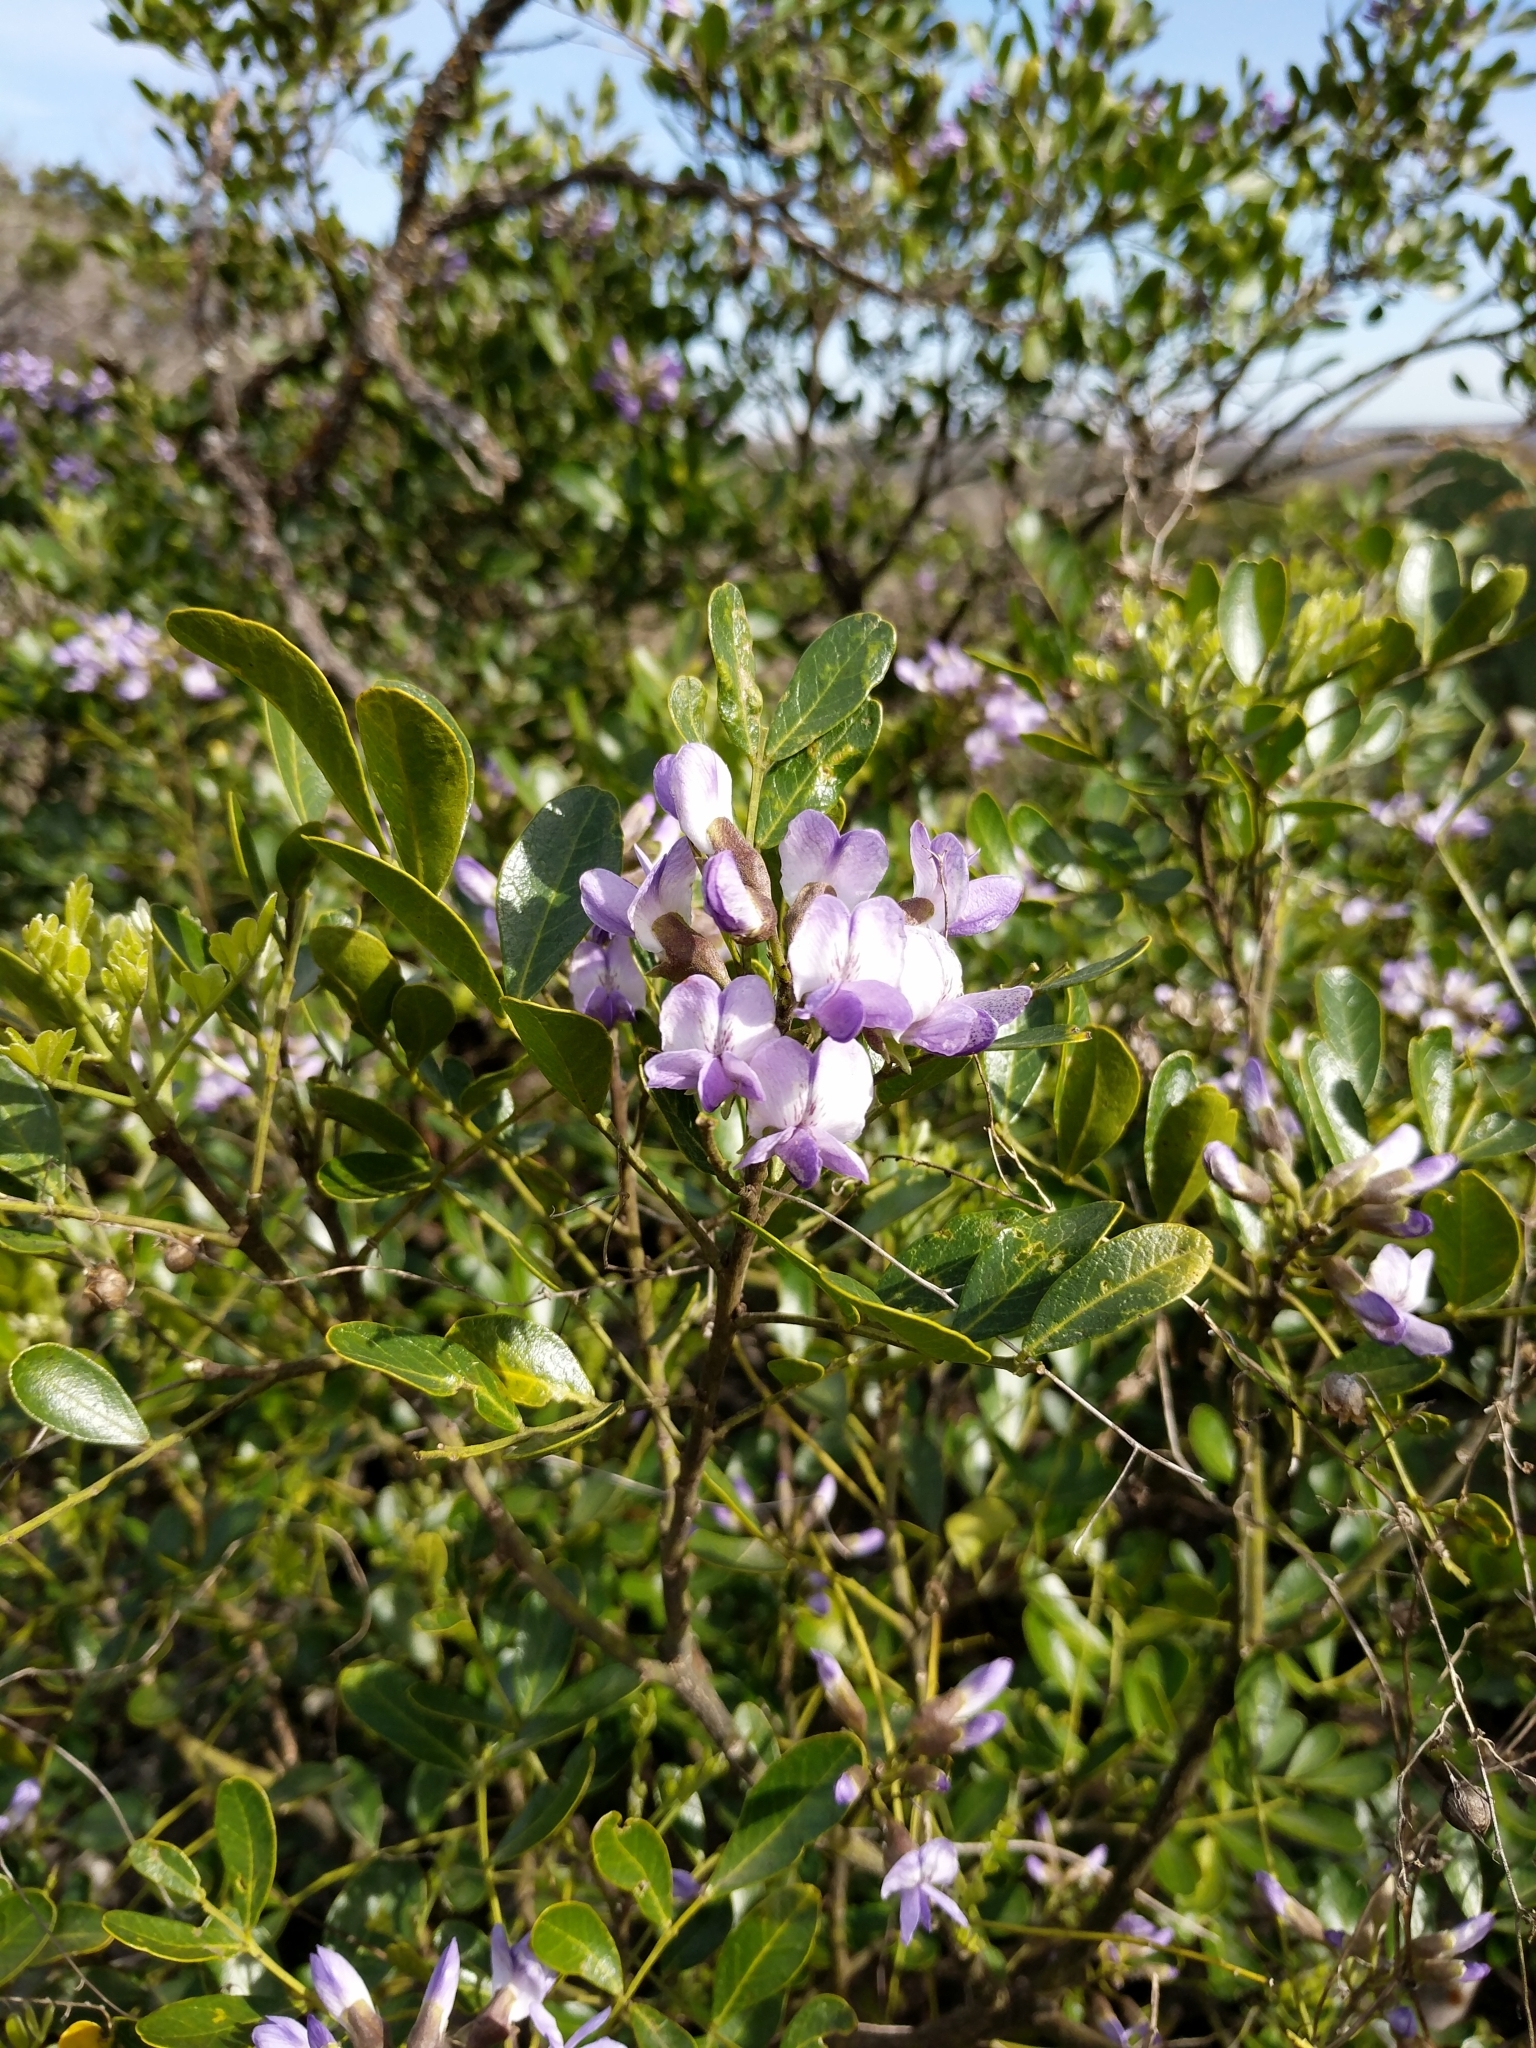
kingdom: Plantae
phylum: Tracheophyta
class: Magnoliopsida
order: Fabales
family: Fabaceae
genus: Dermatophyllum
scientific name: Dermatophyllum secundiflorum
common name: Texas-mountain-laurel
